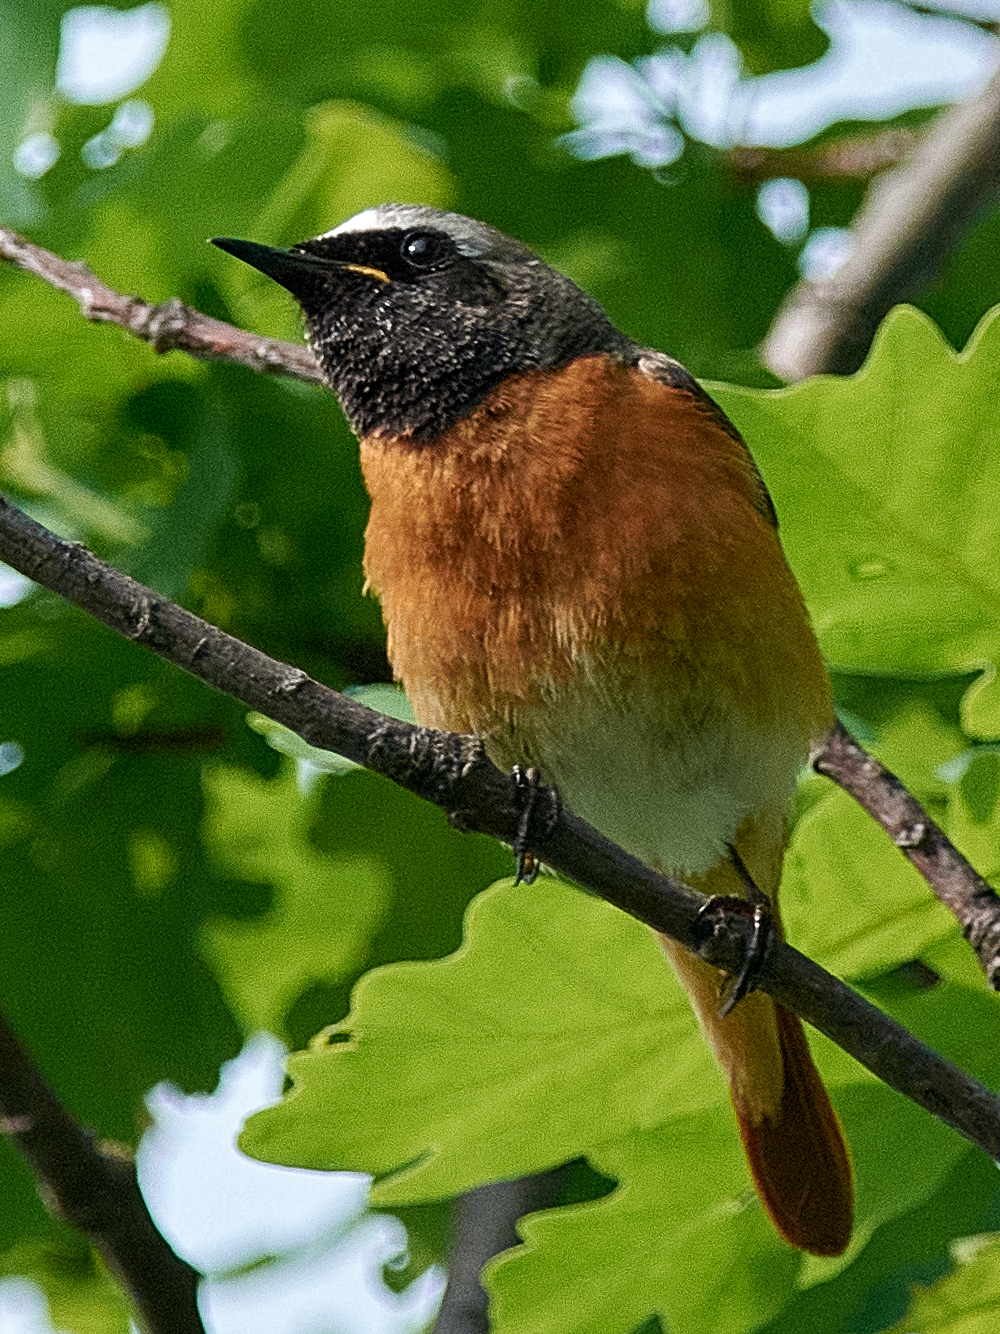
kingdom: Animalia
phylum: Chordata
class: Aves
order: Passeriformes
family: Muscicapidae
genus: Phoenicurus
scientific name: Phoenicurus phoenicurus
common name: Common redstart
